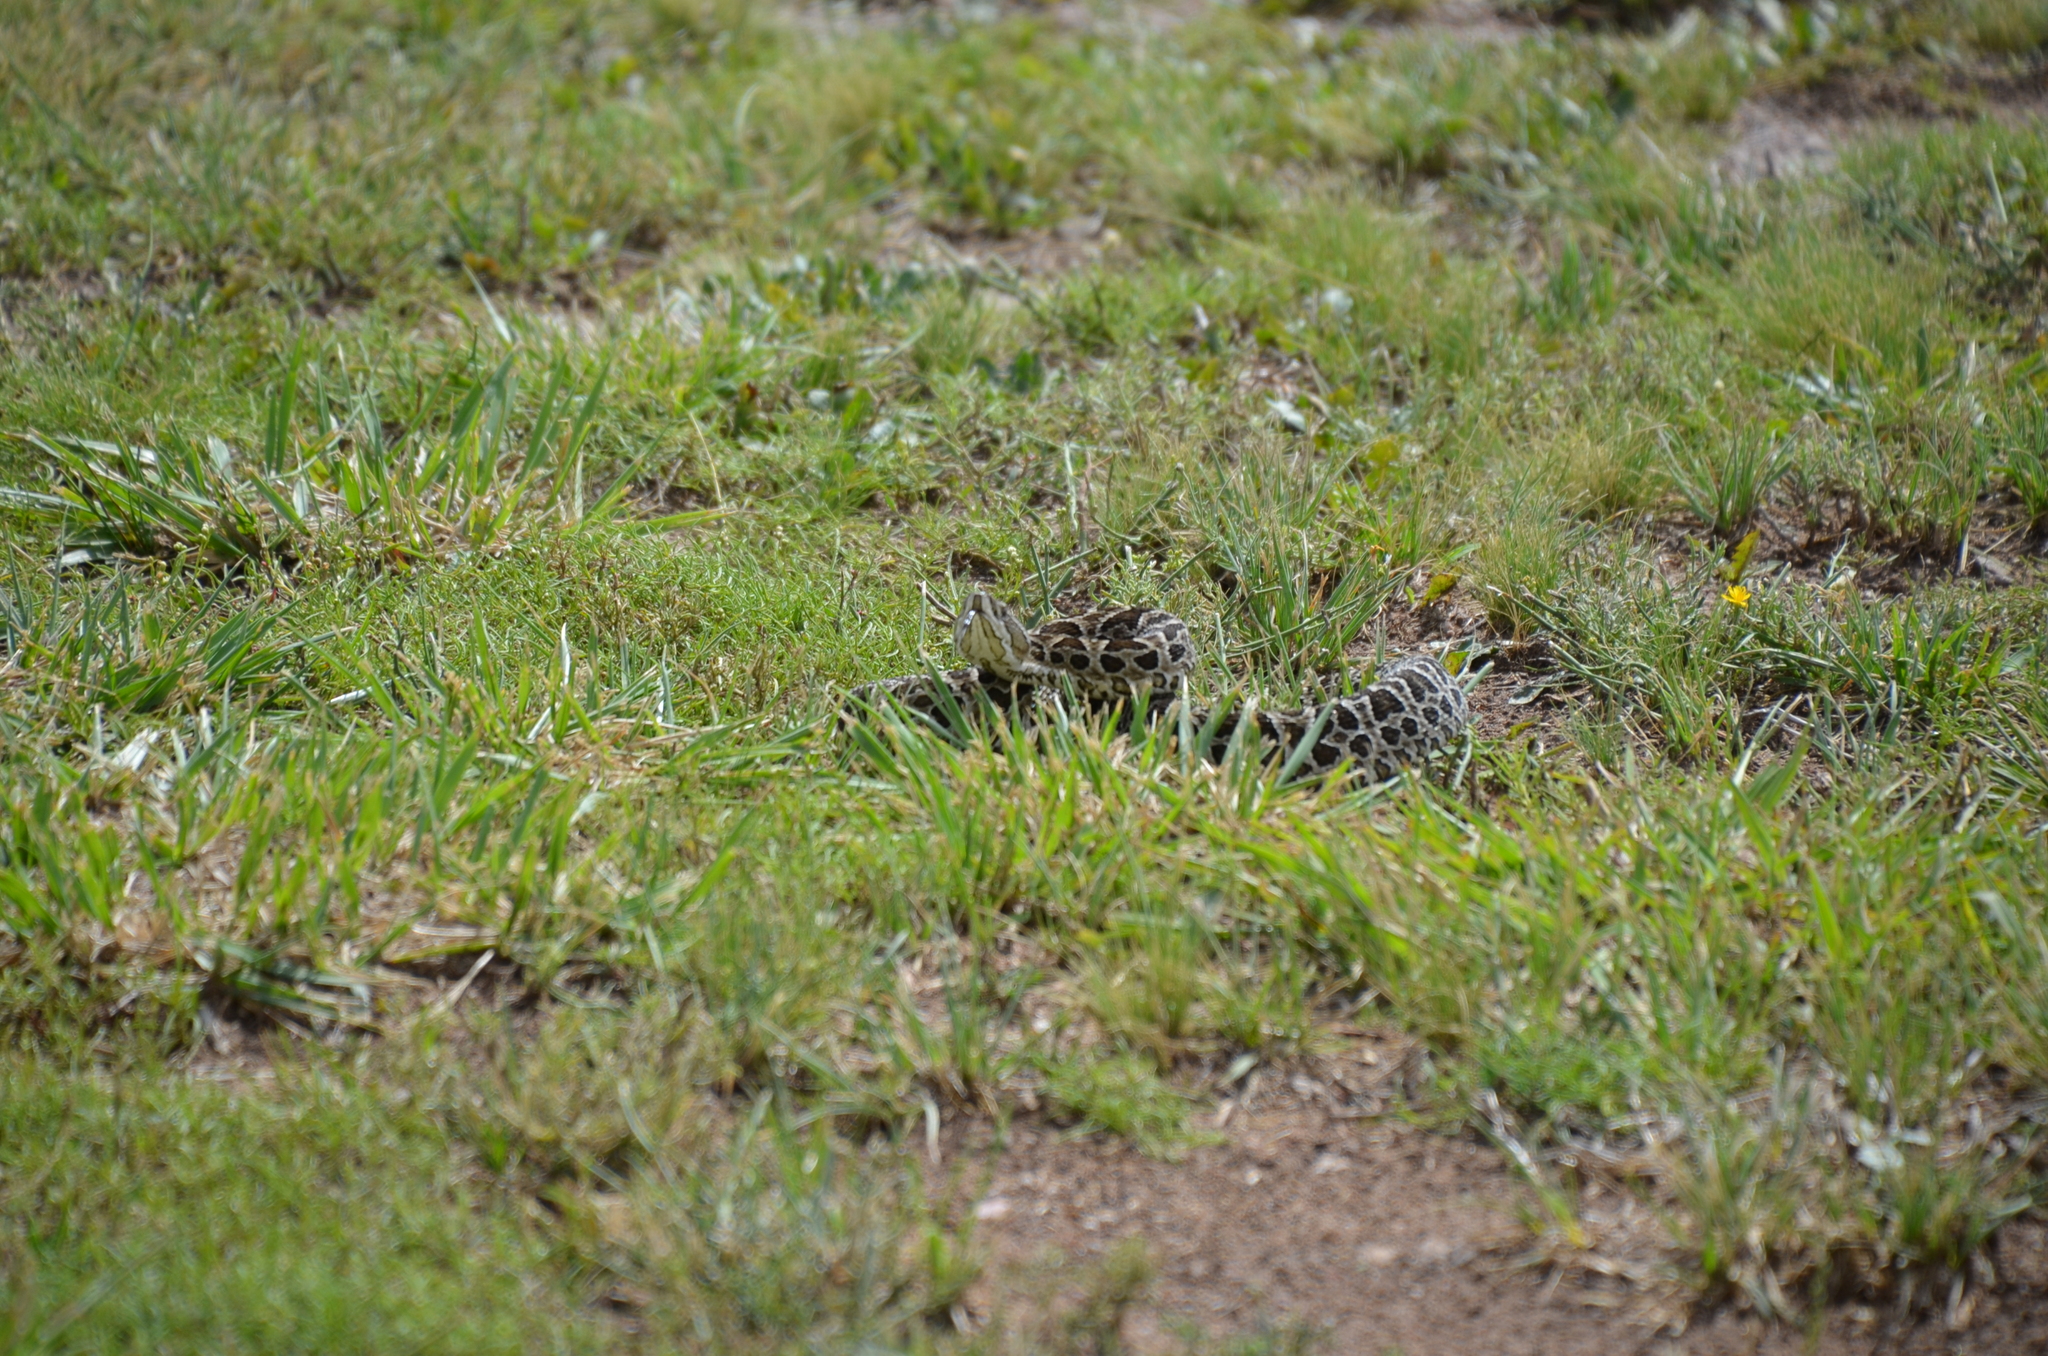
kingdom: Animalia
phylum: Chordata
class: Squamata
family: Viperidae
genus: Bothrops
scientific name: Bothrops alternatus
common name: Urutu
